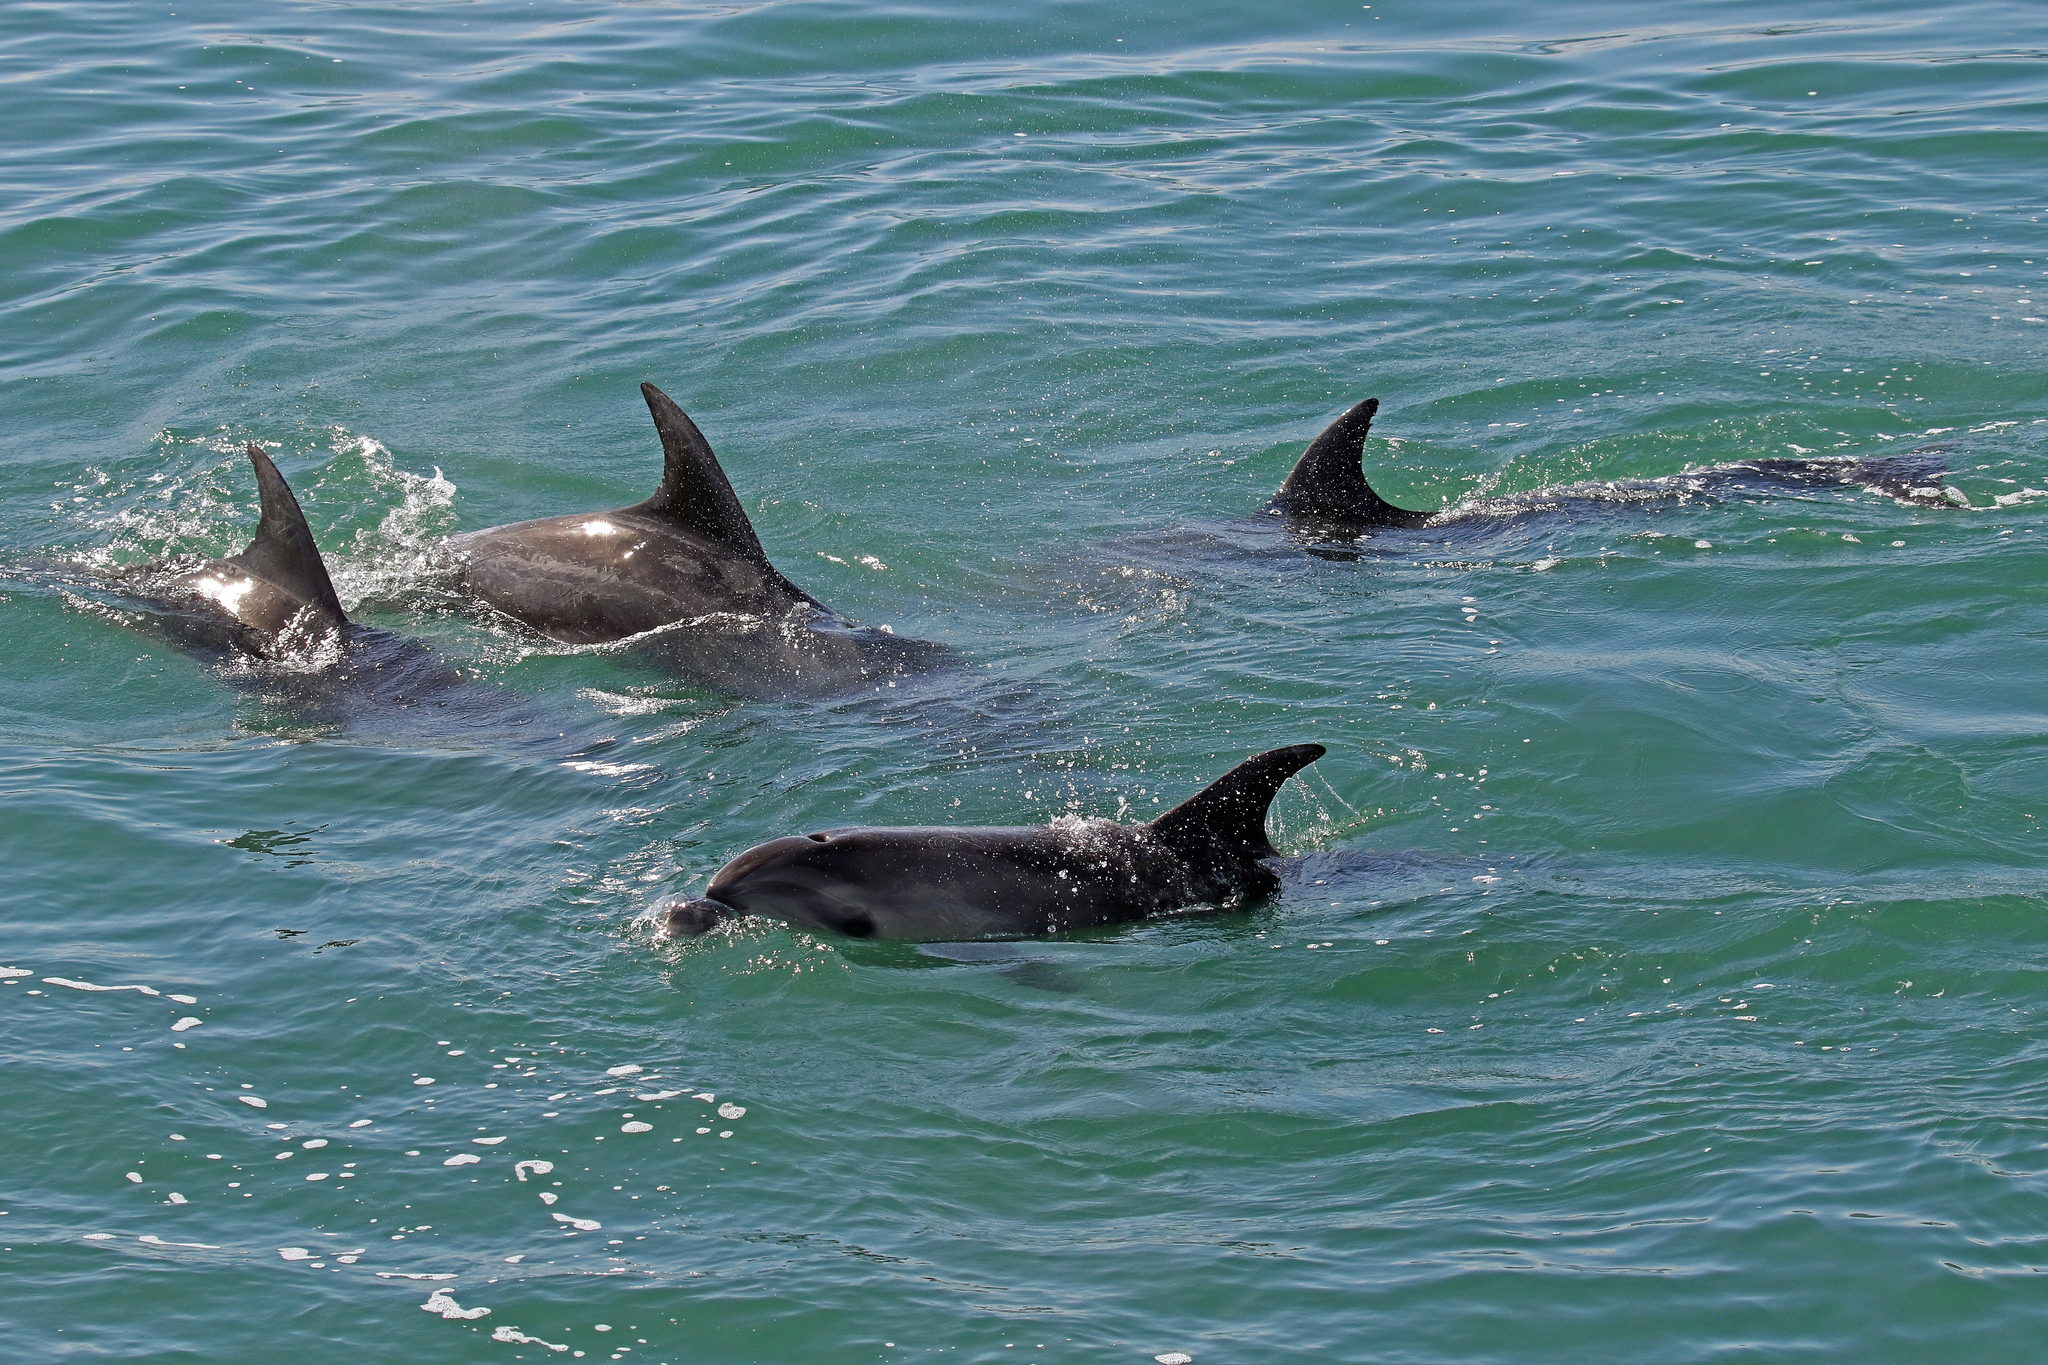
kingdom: Animalia
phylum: Chordata
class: Mammalia
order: Cetacea
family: Delphinidae
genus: Tursiops
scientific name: Tursiops truncatus
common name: Bottlenose dolphin
